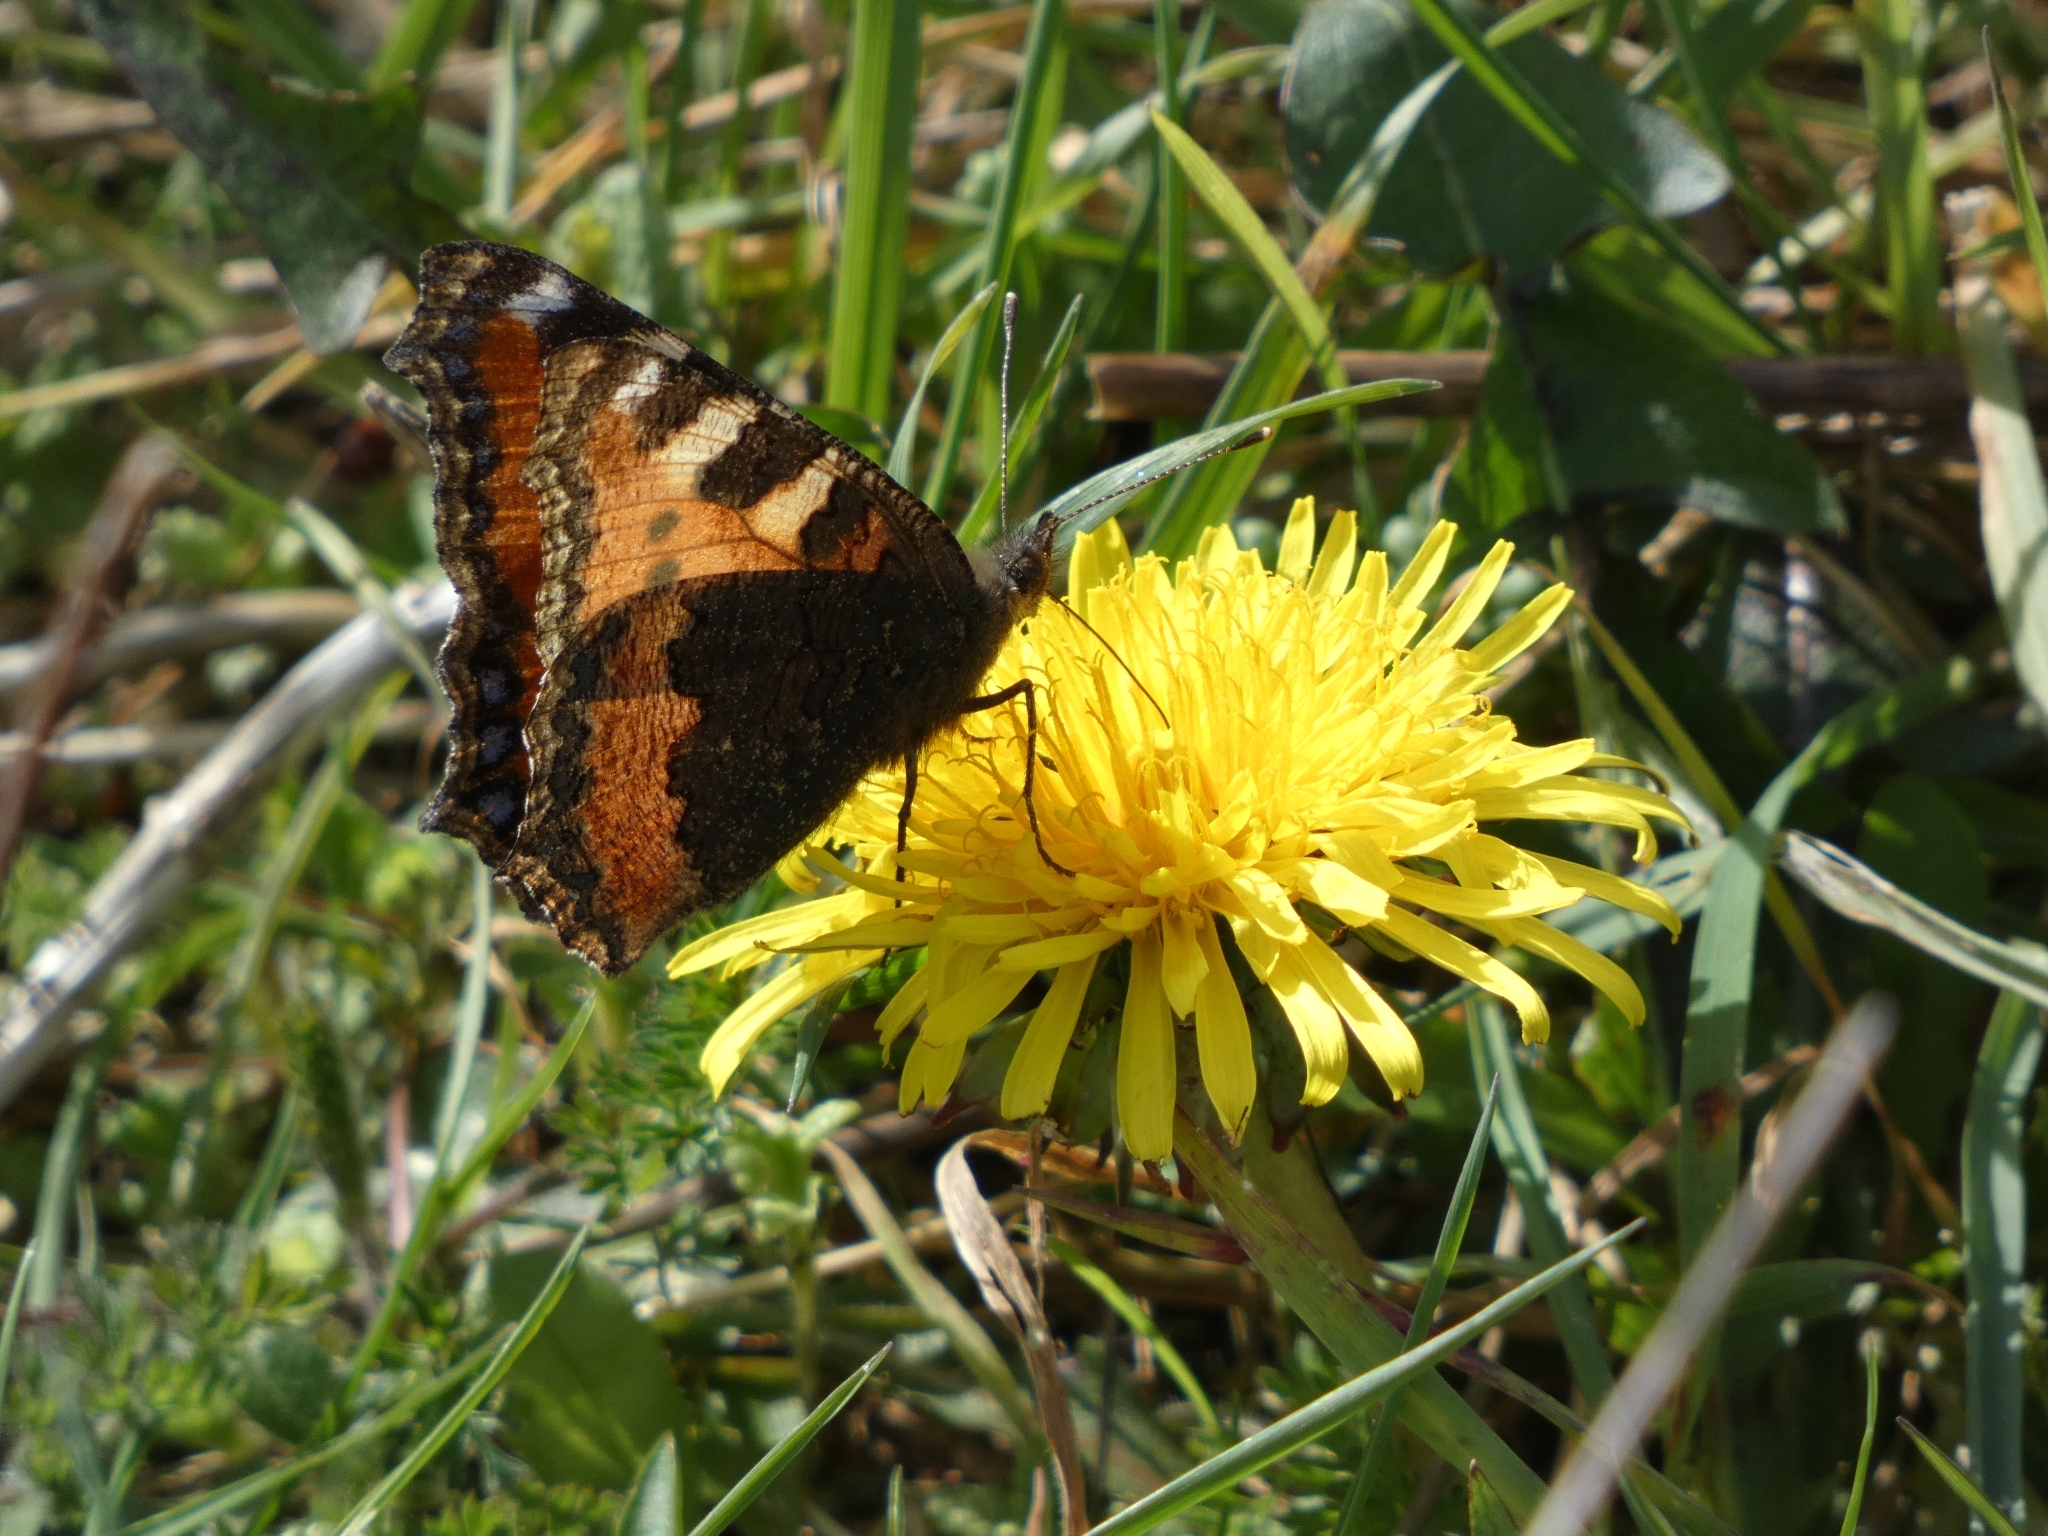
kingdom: Animalia
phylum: Arthropoda
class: Insecta
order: Lepidoptera
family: Nymphalidae
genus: Aglais
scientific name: Aglais urticae
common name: Small tortoiseshell
